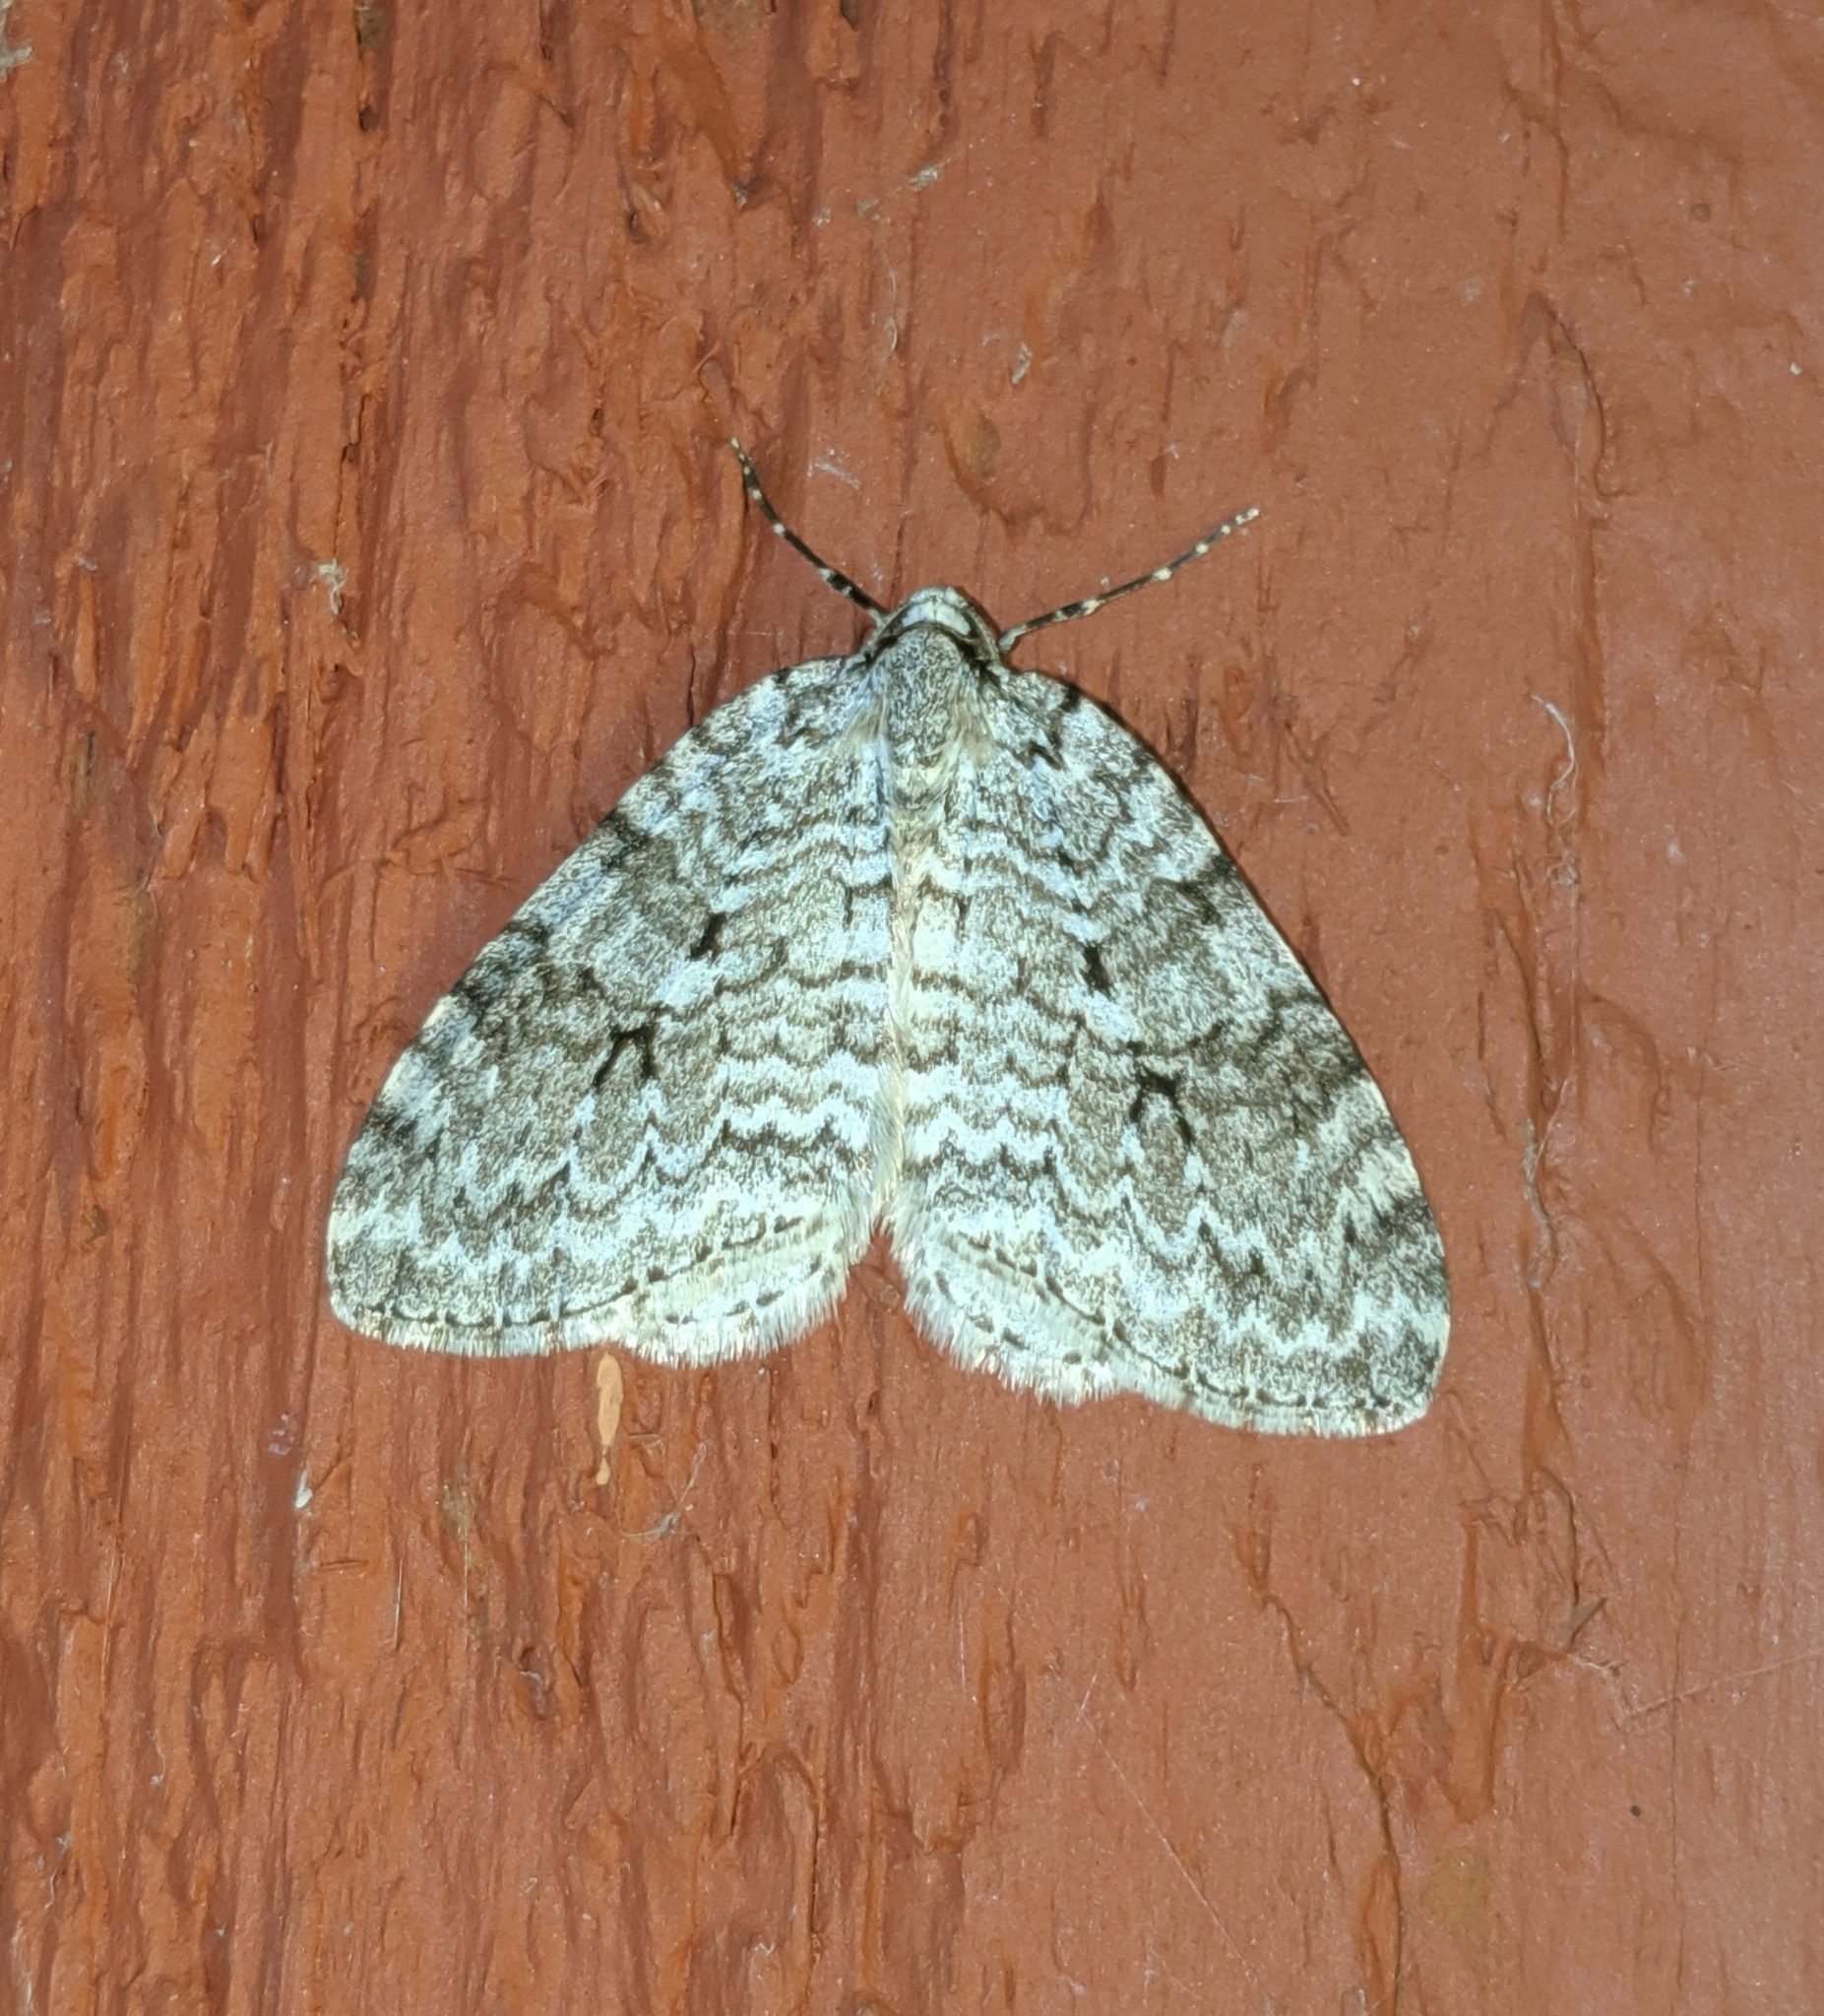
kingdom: Animalia
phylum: Arthropoda
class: Insecta
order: Lepidoptera
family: Geometridae
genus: Epirrita
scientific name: Epirrita autumnata
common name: Autumnal moth
